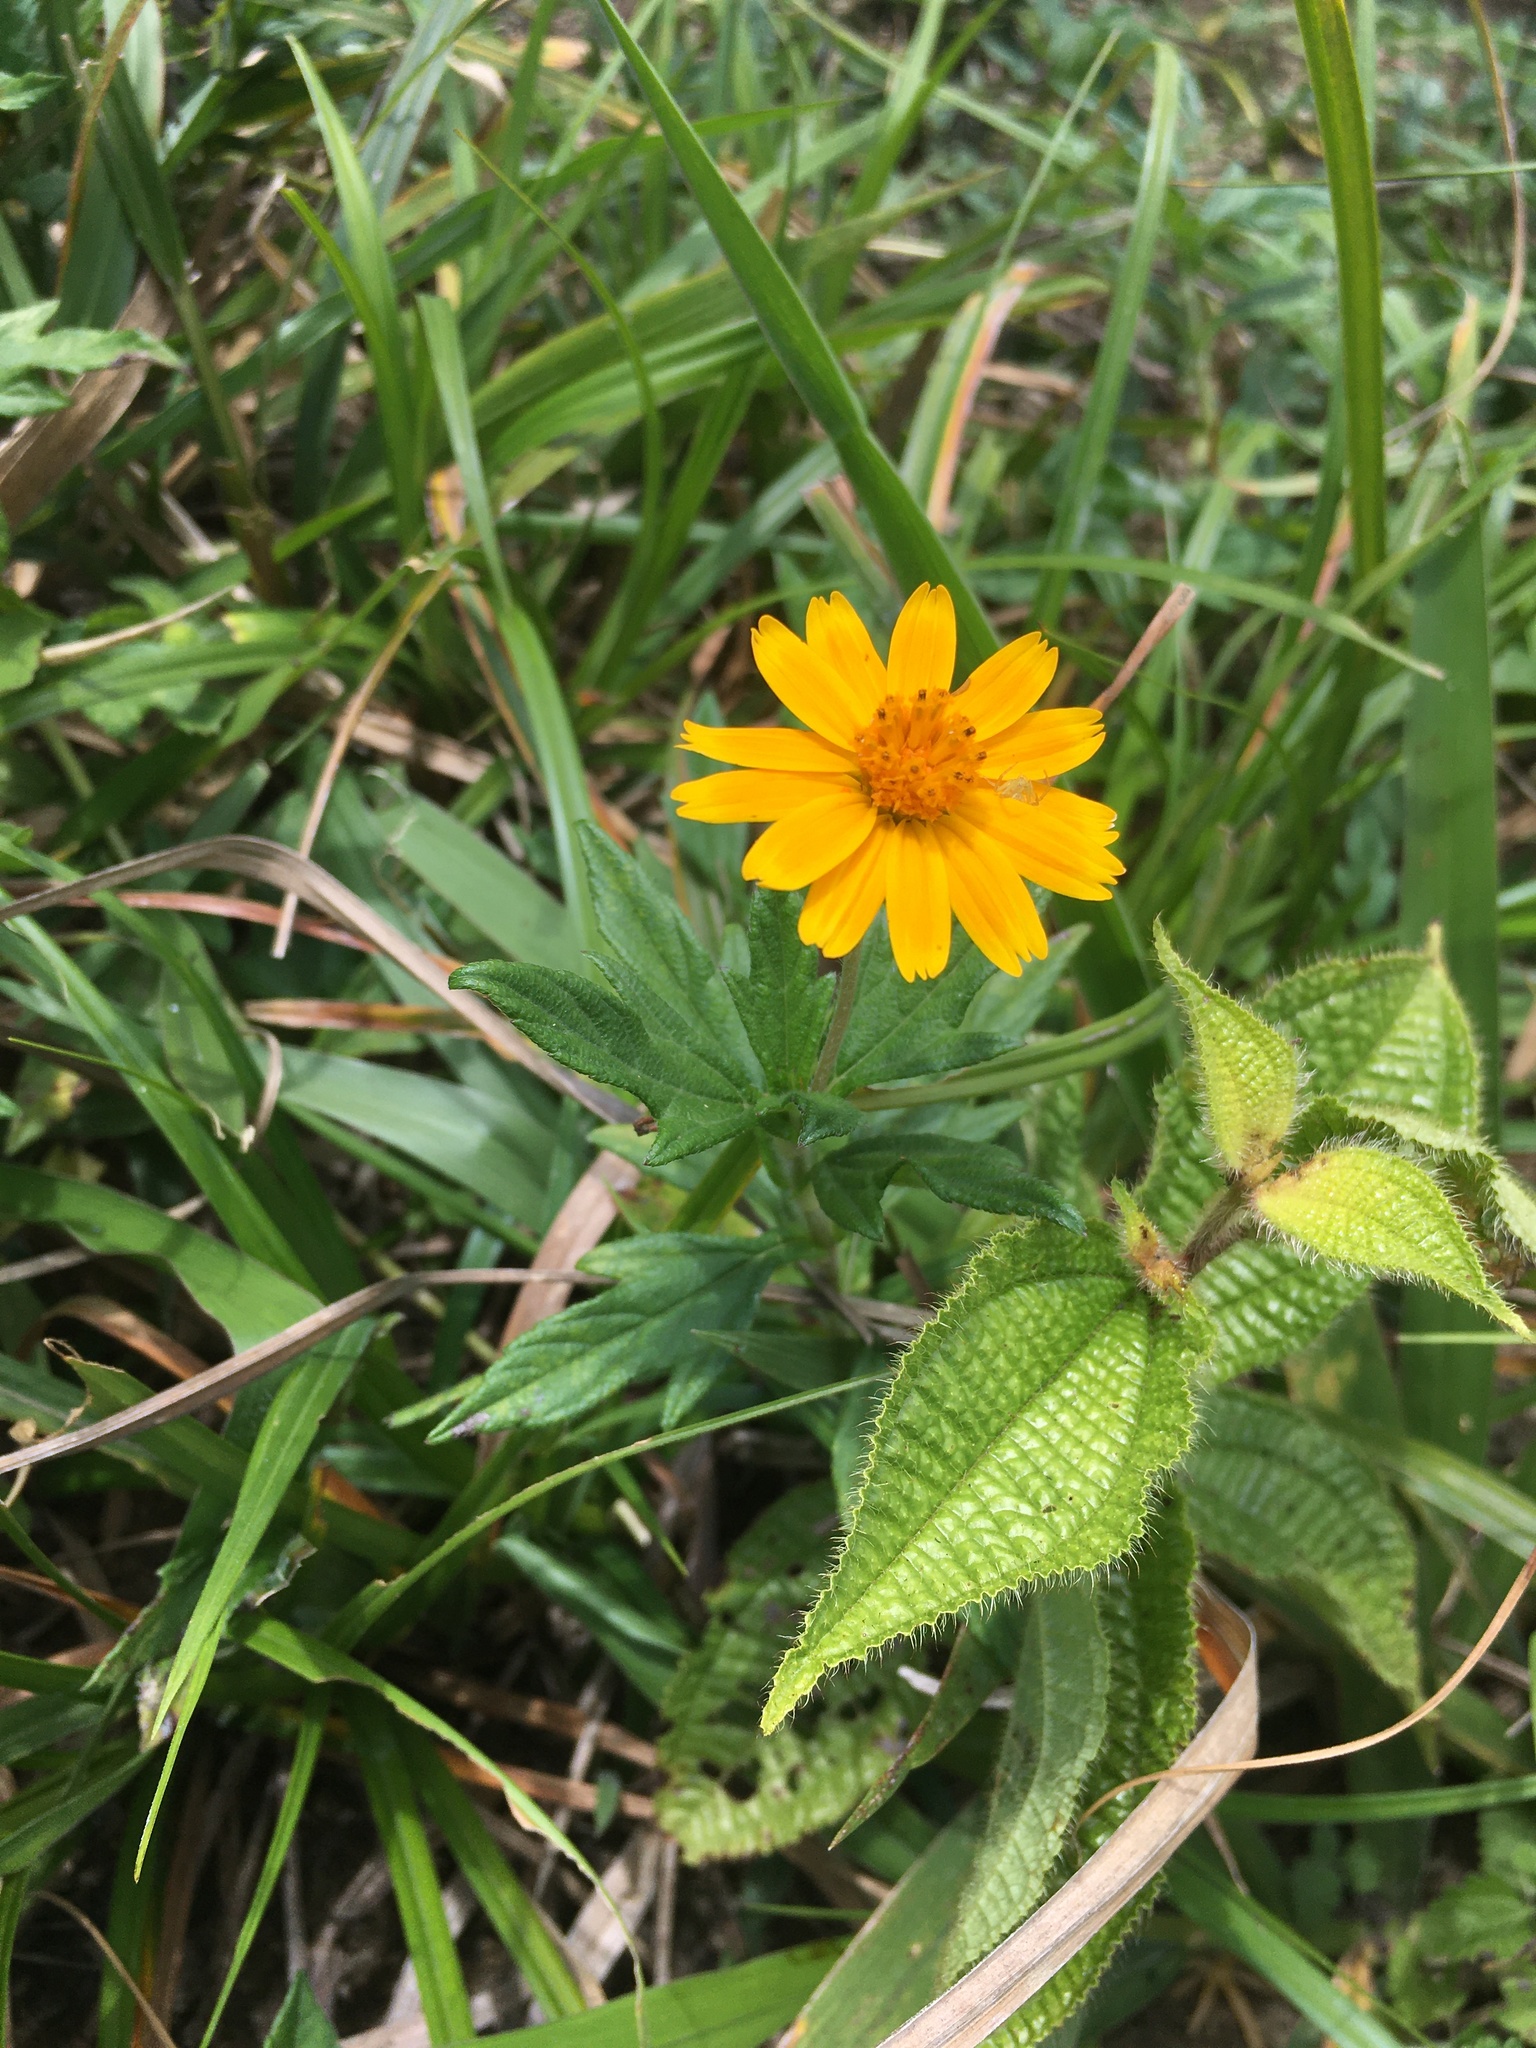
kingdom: Plantae
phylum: Tracheophyta
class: Magnoliopsida
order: Asterales
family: Asteraceae
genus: Sphagneticola
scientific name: Sphagneticola trilobata
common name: Bay biscayne creeping-oxeye
